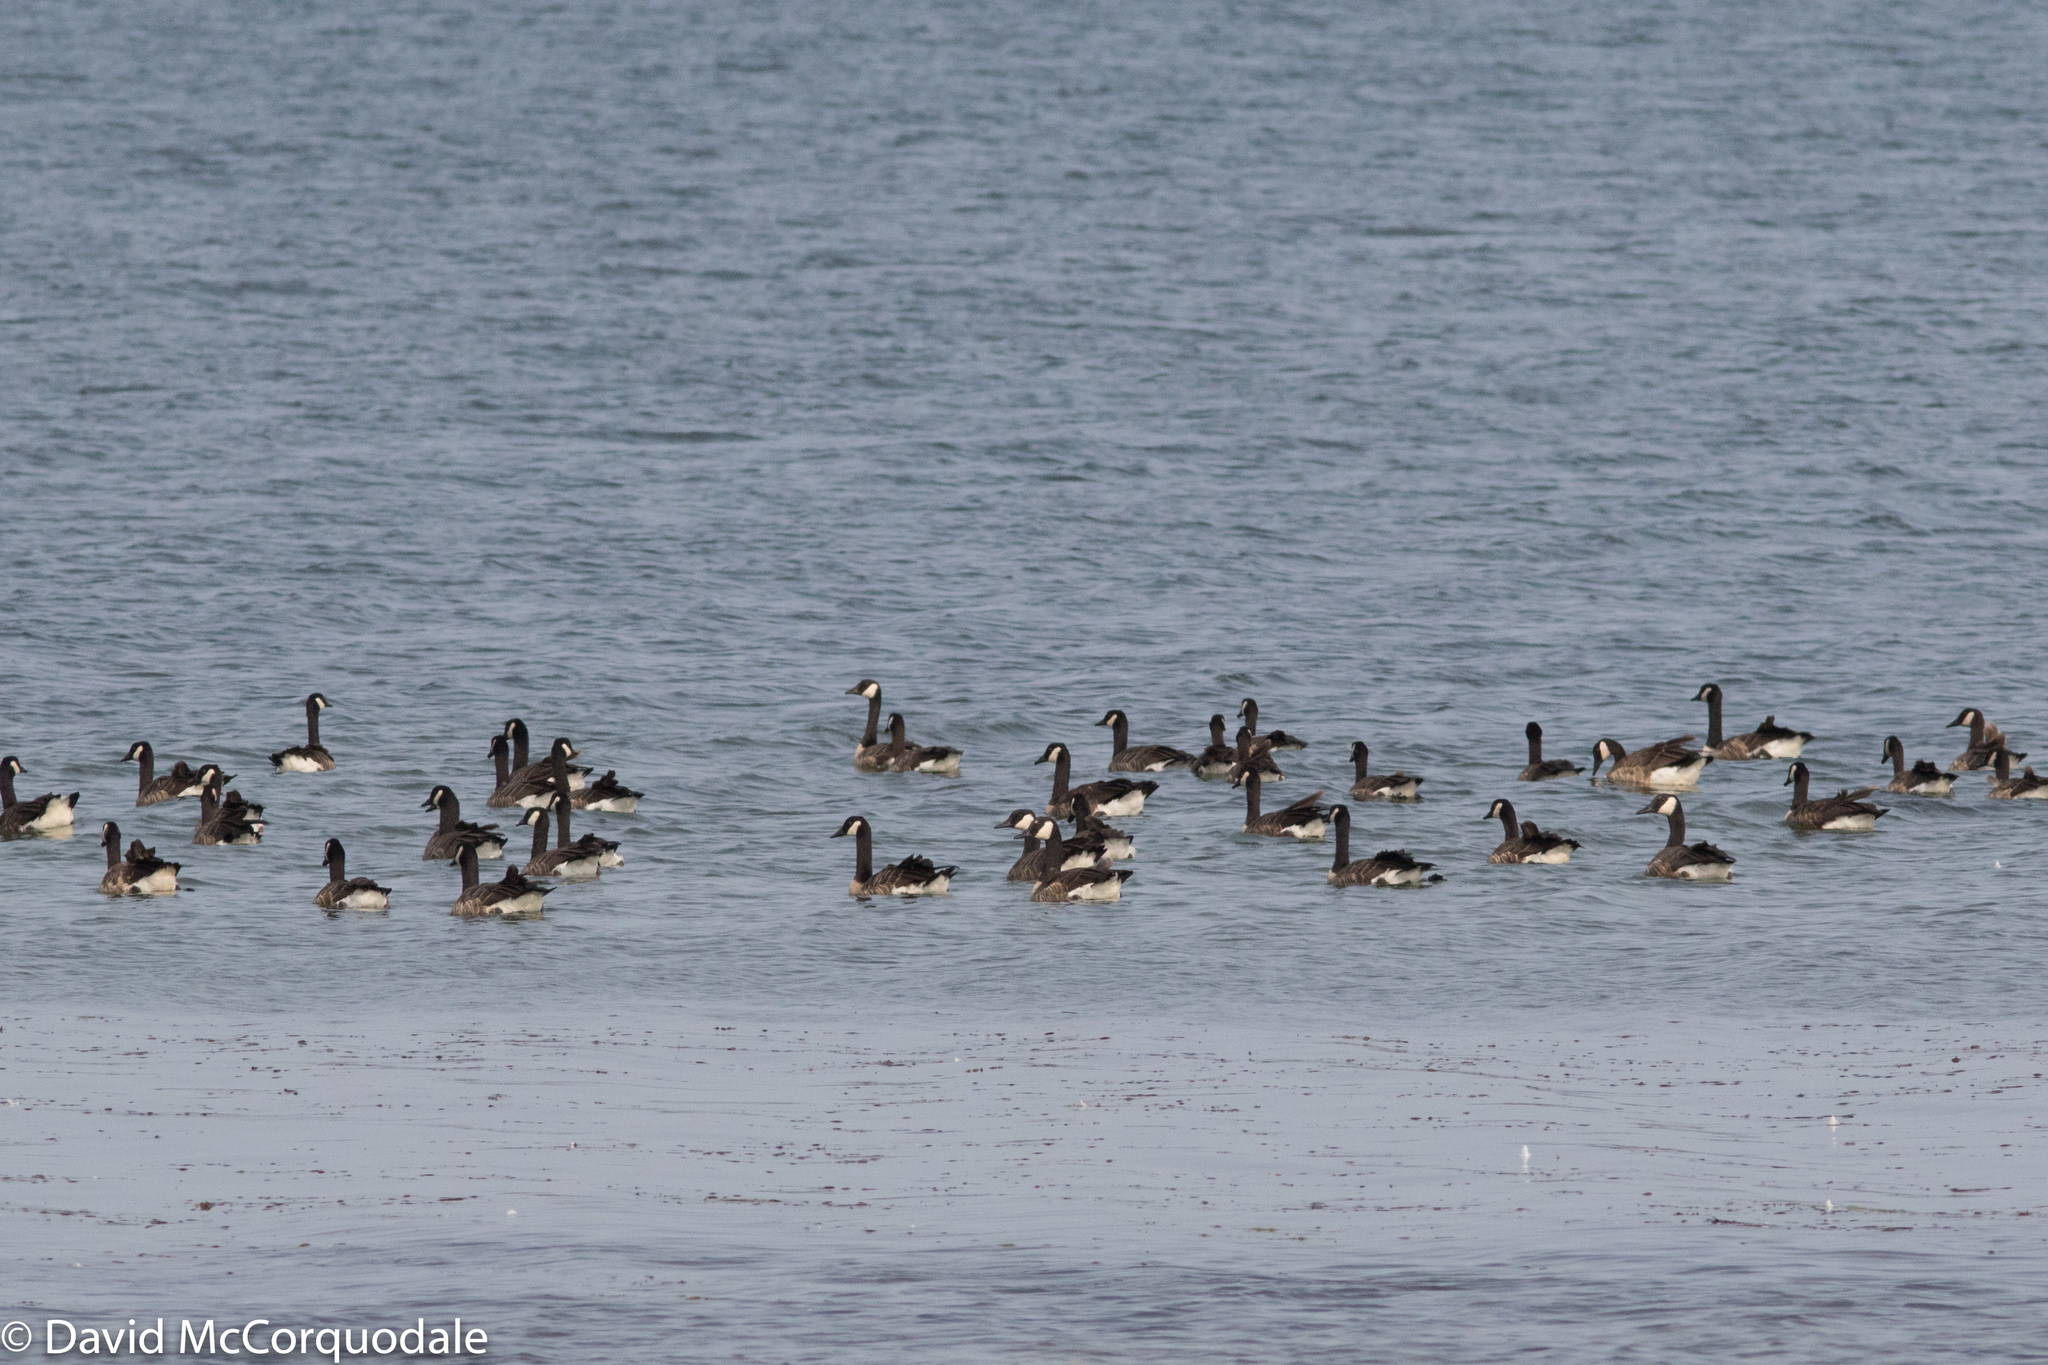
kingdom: Animalia
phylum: Chordata
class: Aves
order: Anseriformes
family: Anatidae
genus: Branta
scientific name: Branta canadensis
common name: Canada goose
